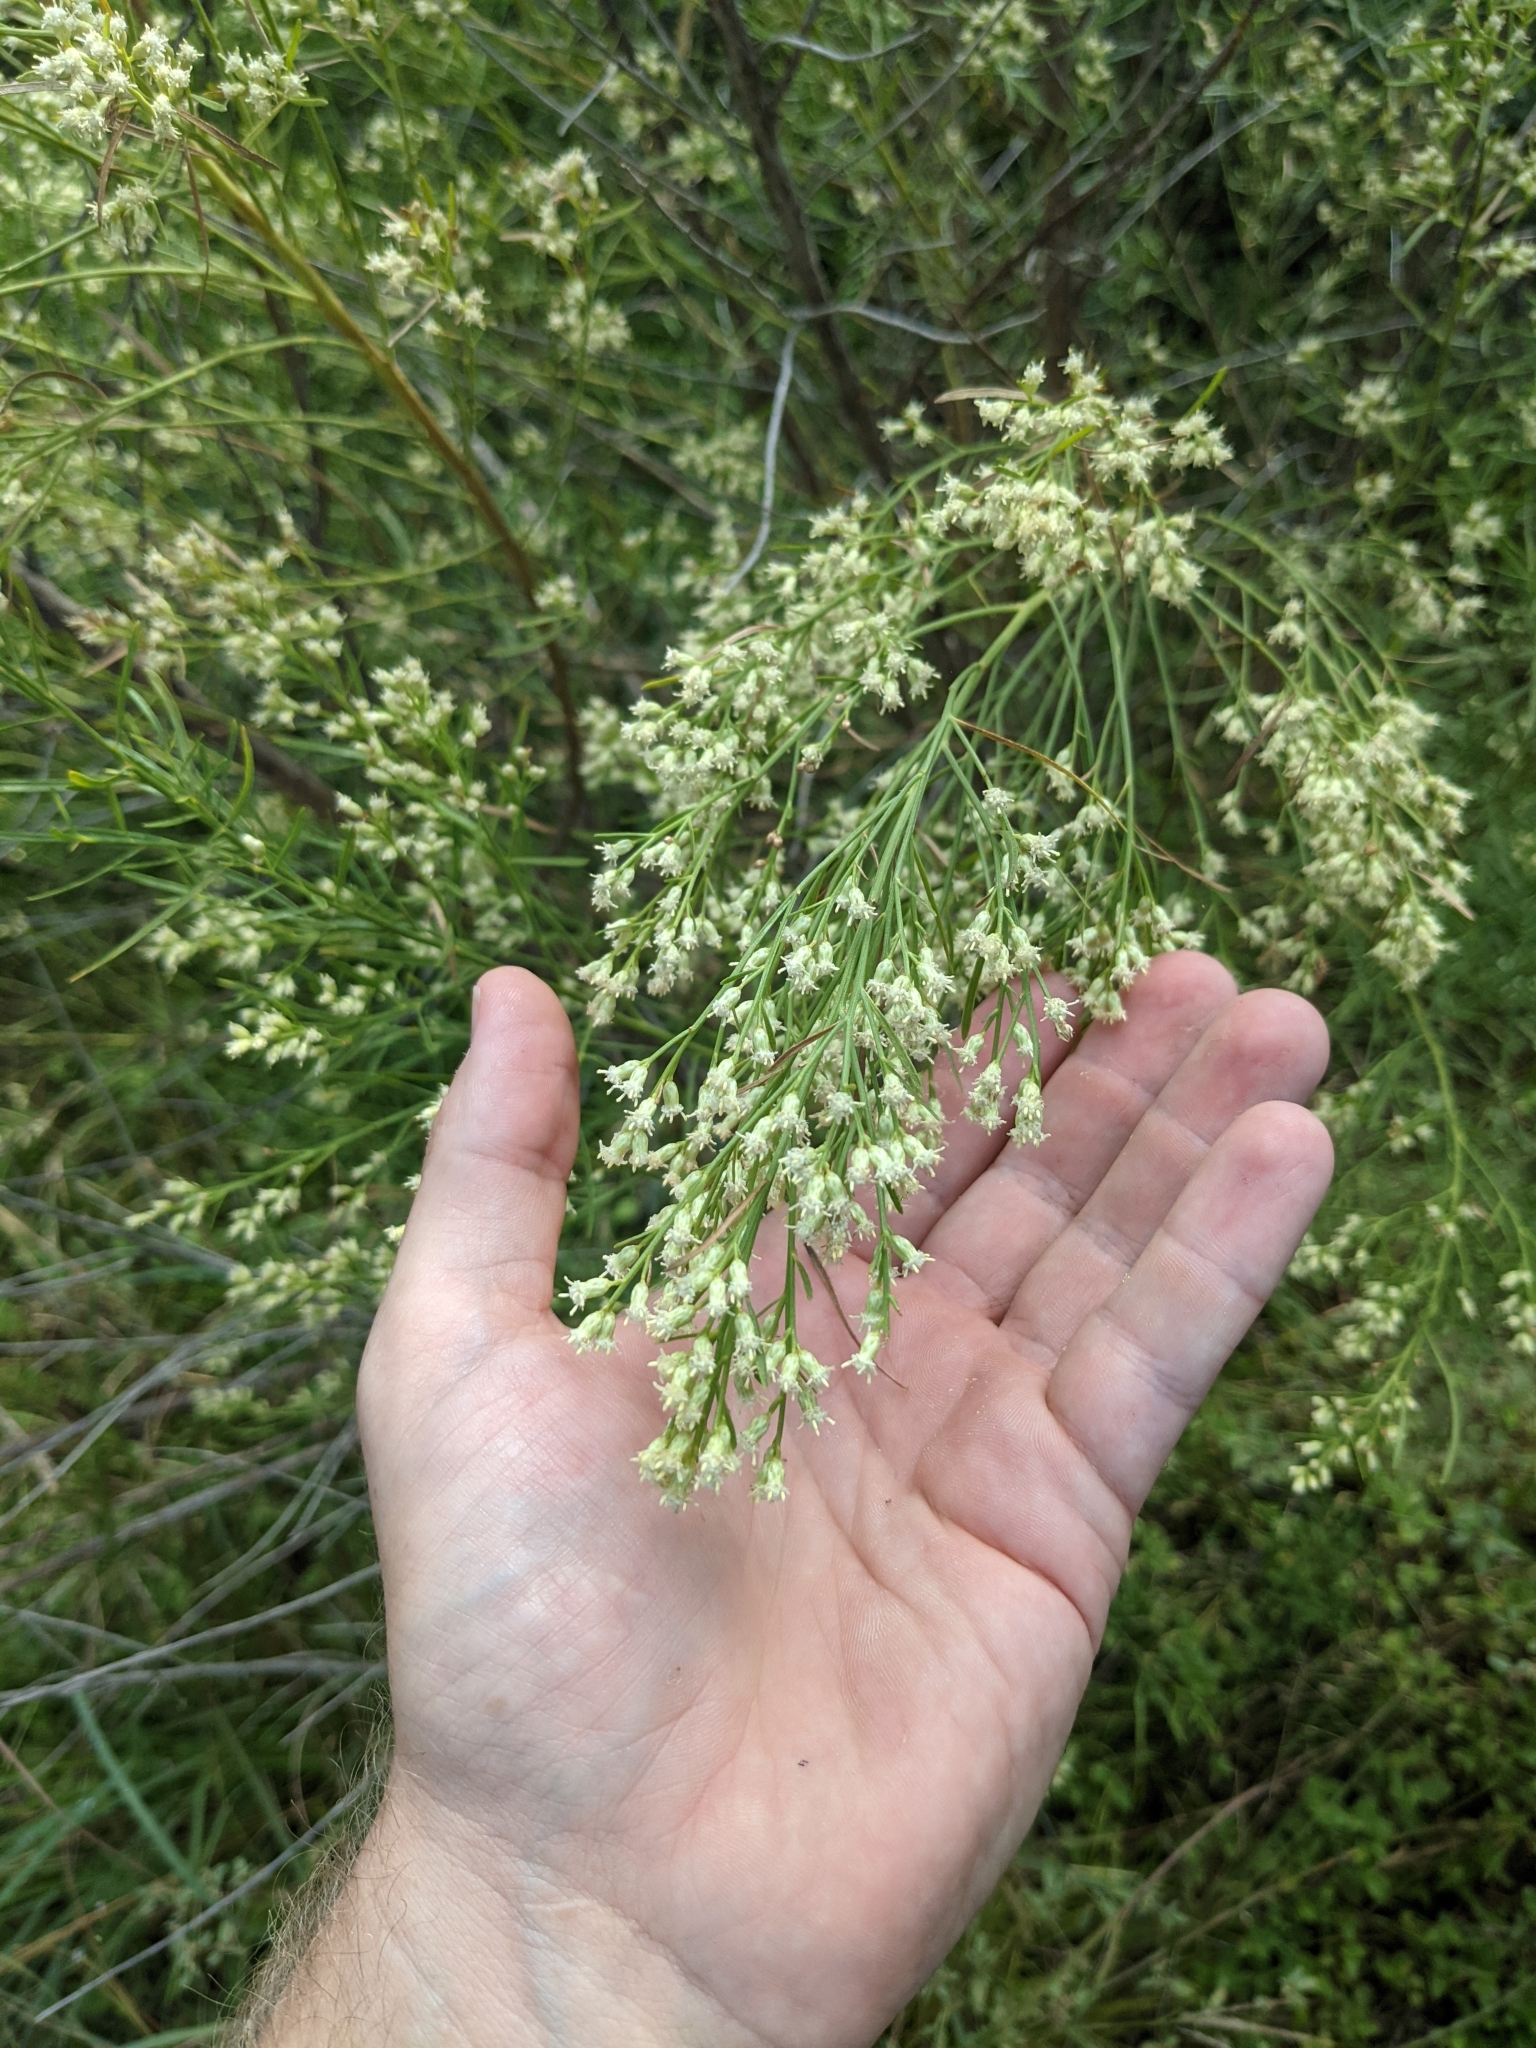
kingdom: Plantae
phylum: Tracheophyta
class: Magnoliopsida
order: Asterales
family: Asteraceae
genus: Baccharis
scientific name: Baccharis neglecta
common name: Roosevelt-weed
